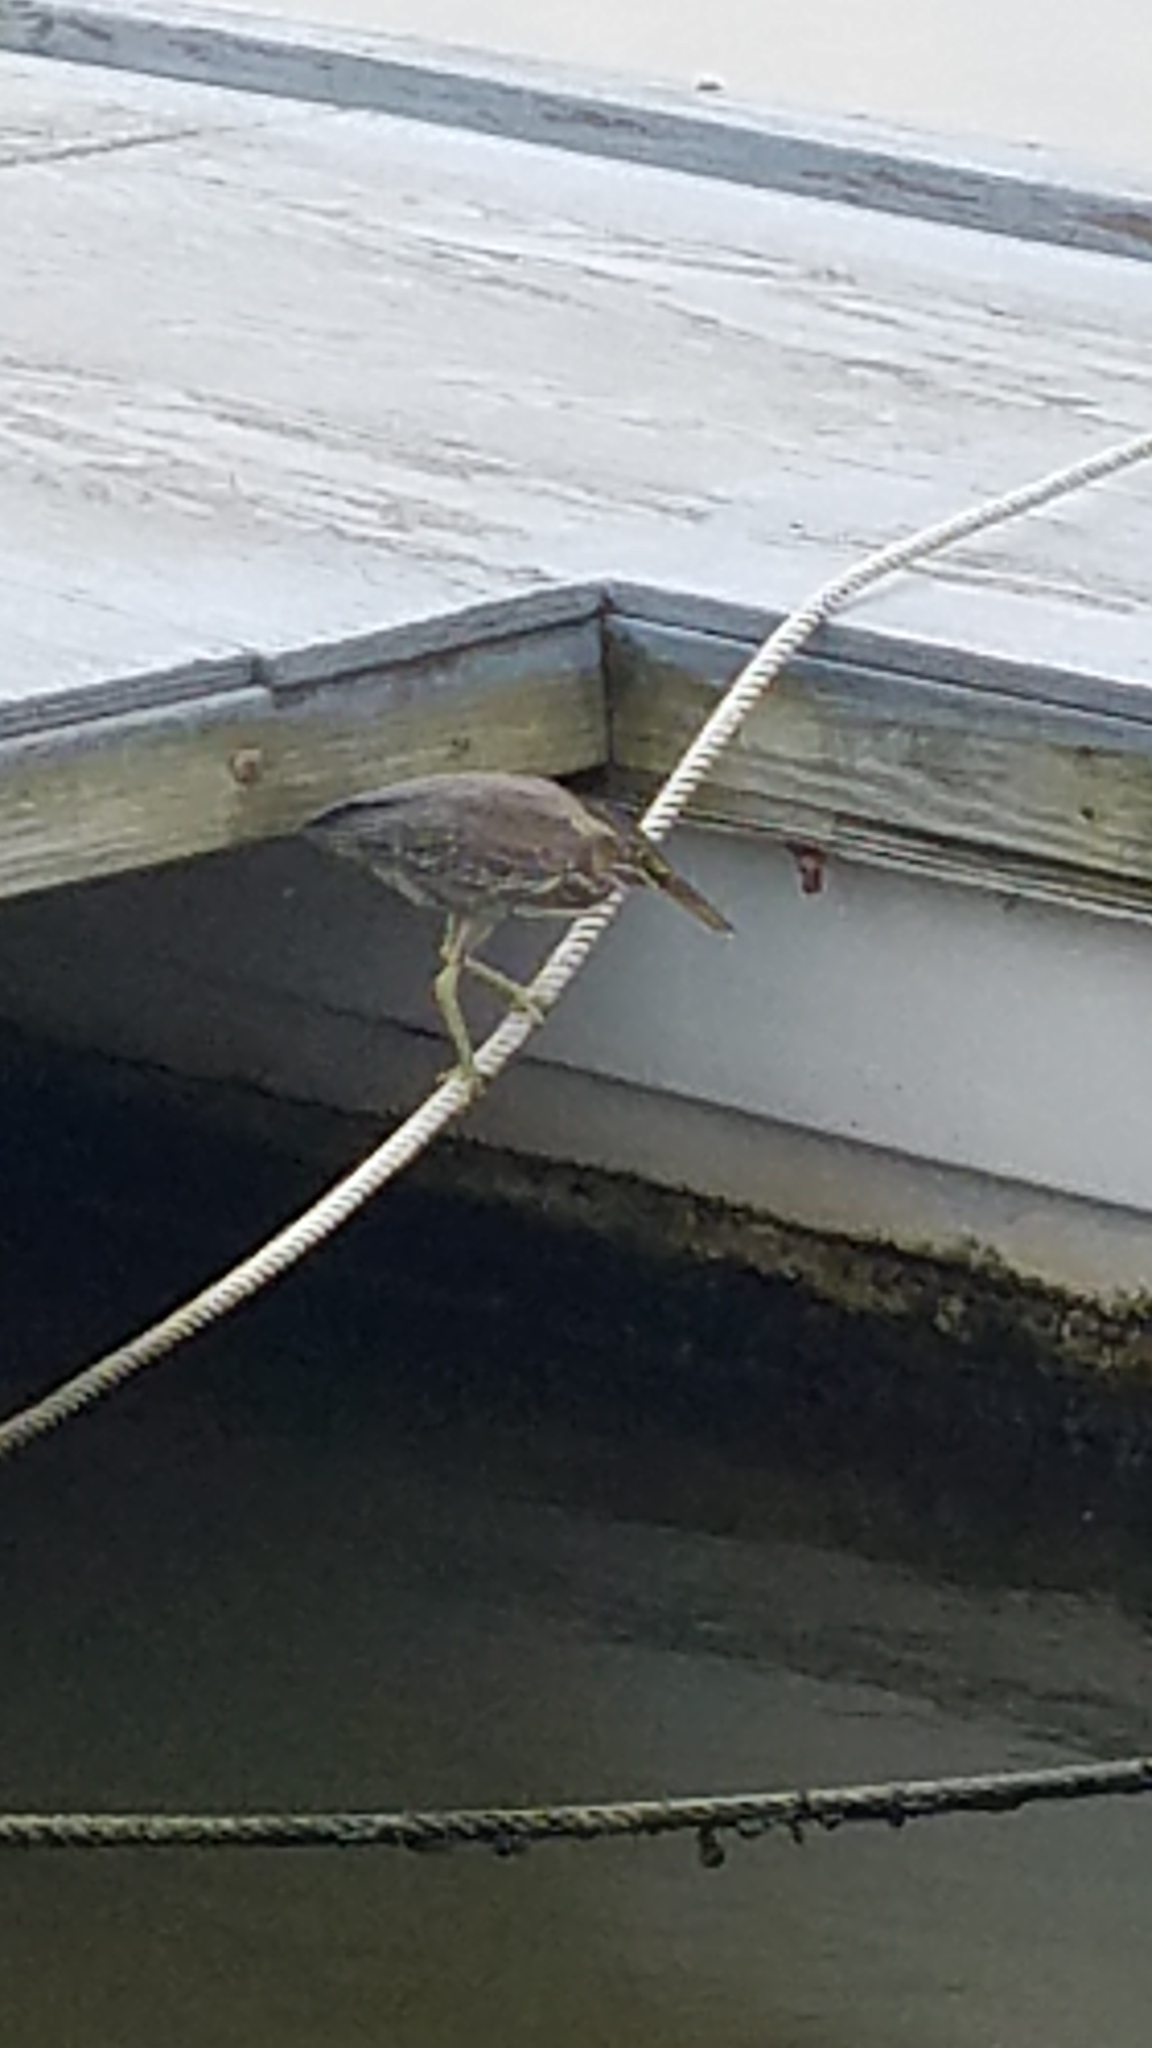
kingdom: Animalia
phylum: Chordata
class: Aves
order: Pelecaniformes
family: Ardeidae
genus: Butorides
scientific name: Butorides virescens
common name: Green heron
